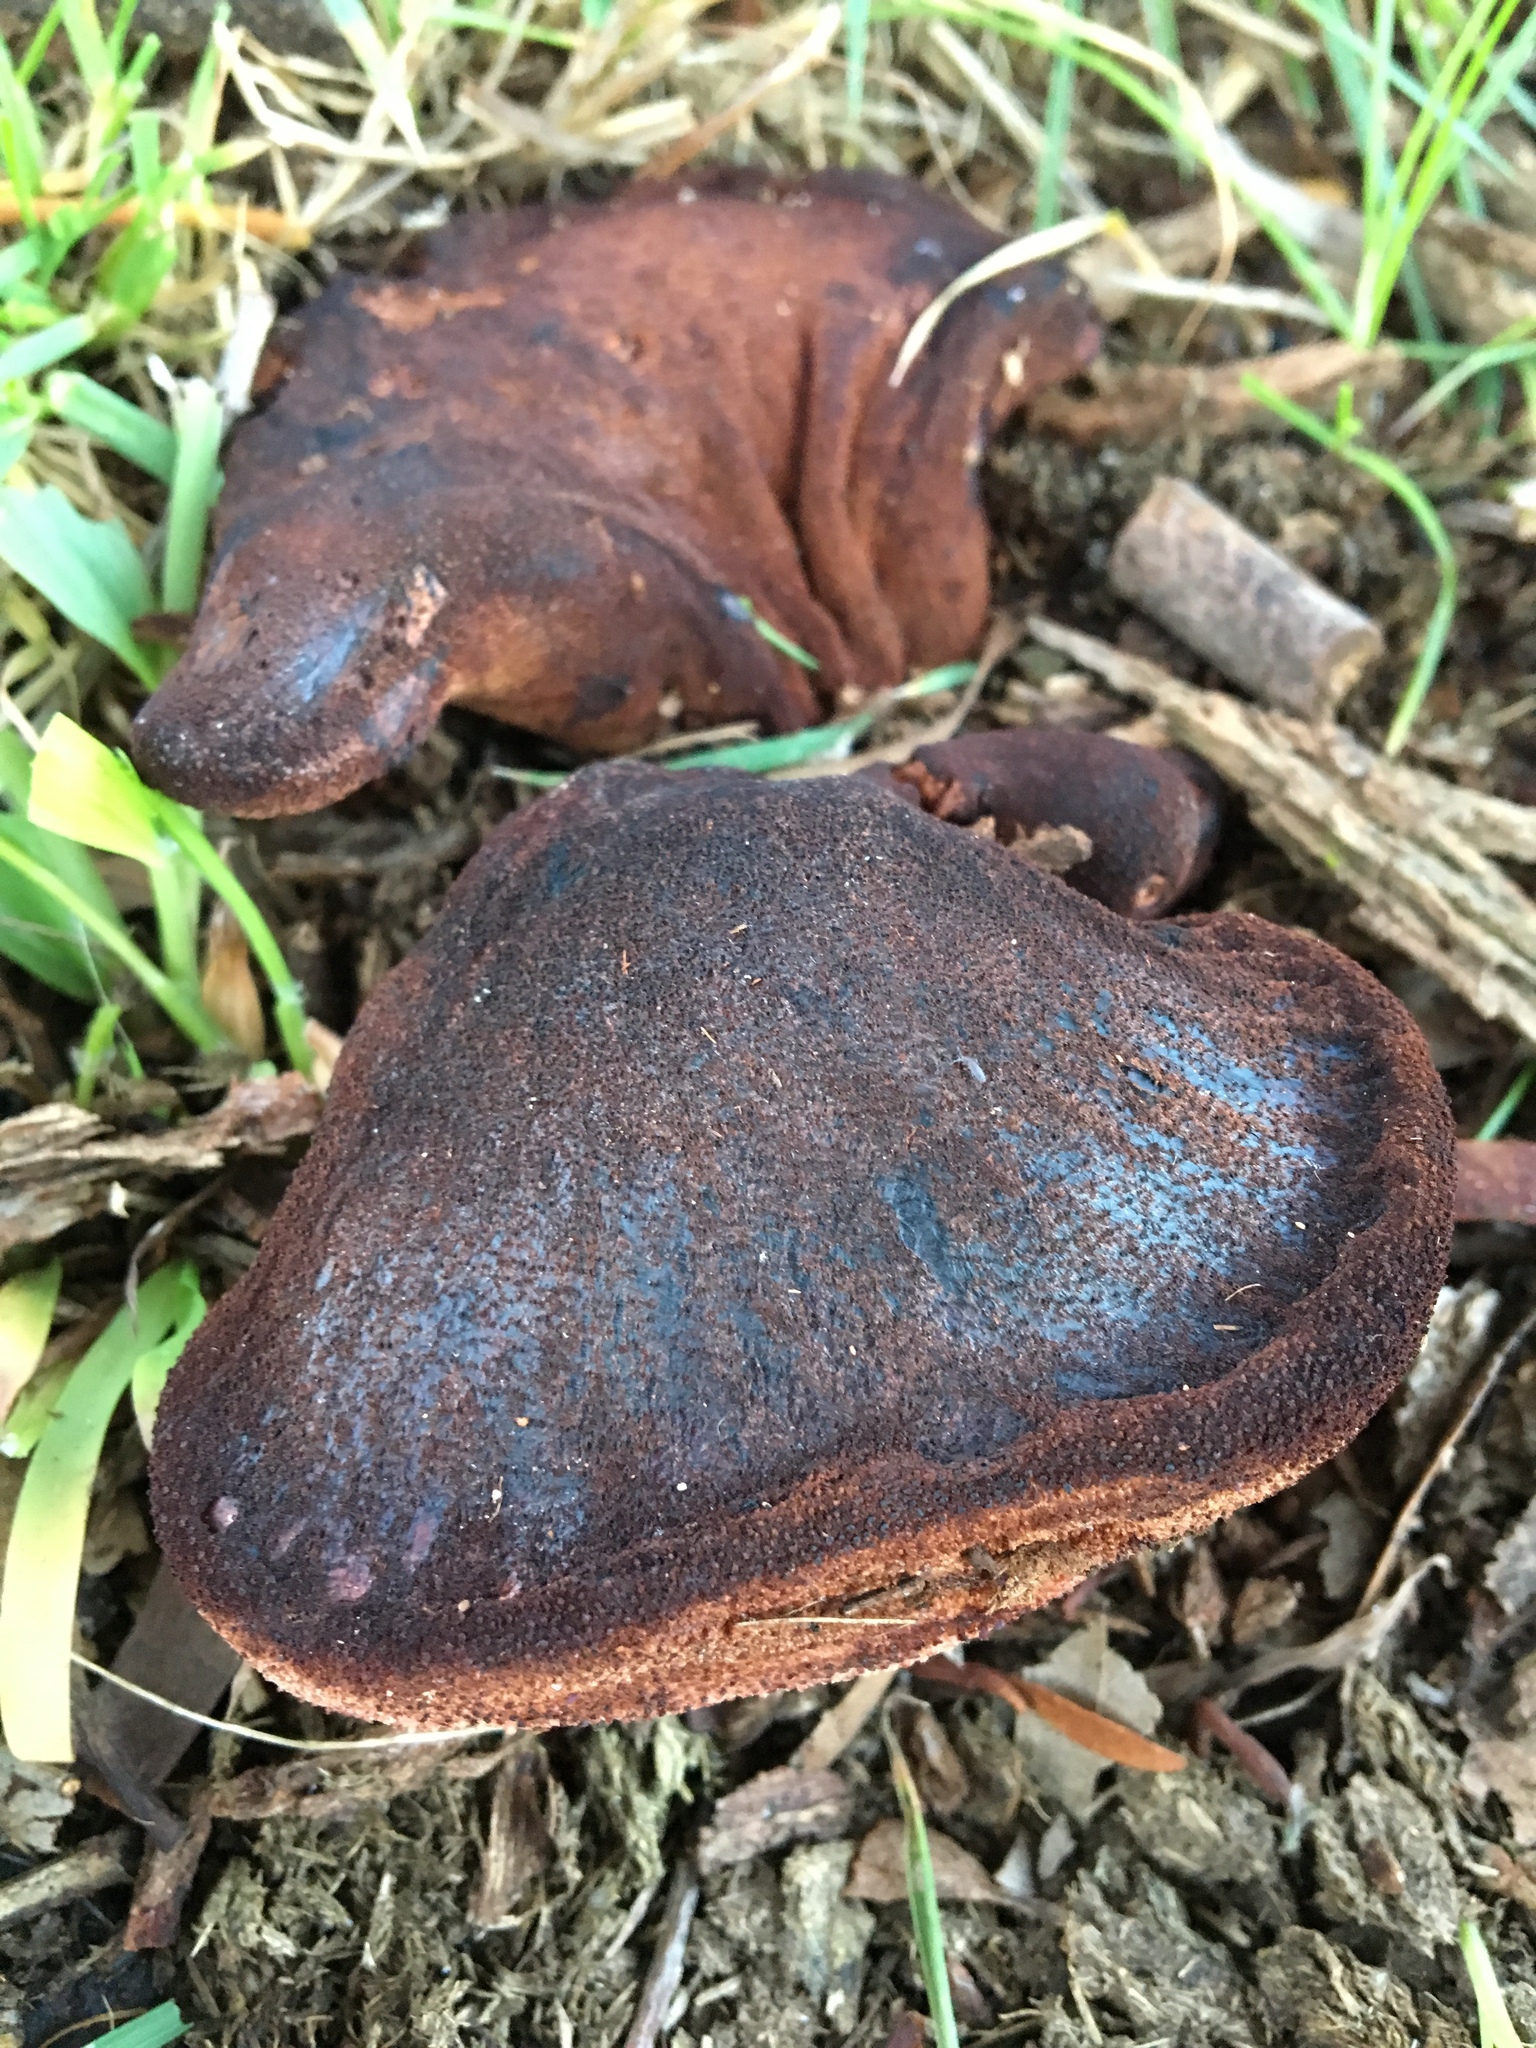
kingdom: Fungi
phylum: Basidiomycota
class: Agaricomycetes
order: Agaricales
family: Fistulinaceae
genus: Fistulina
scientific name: Fistulina spiculifera
